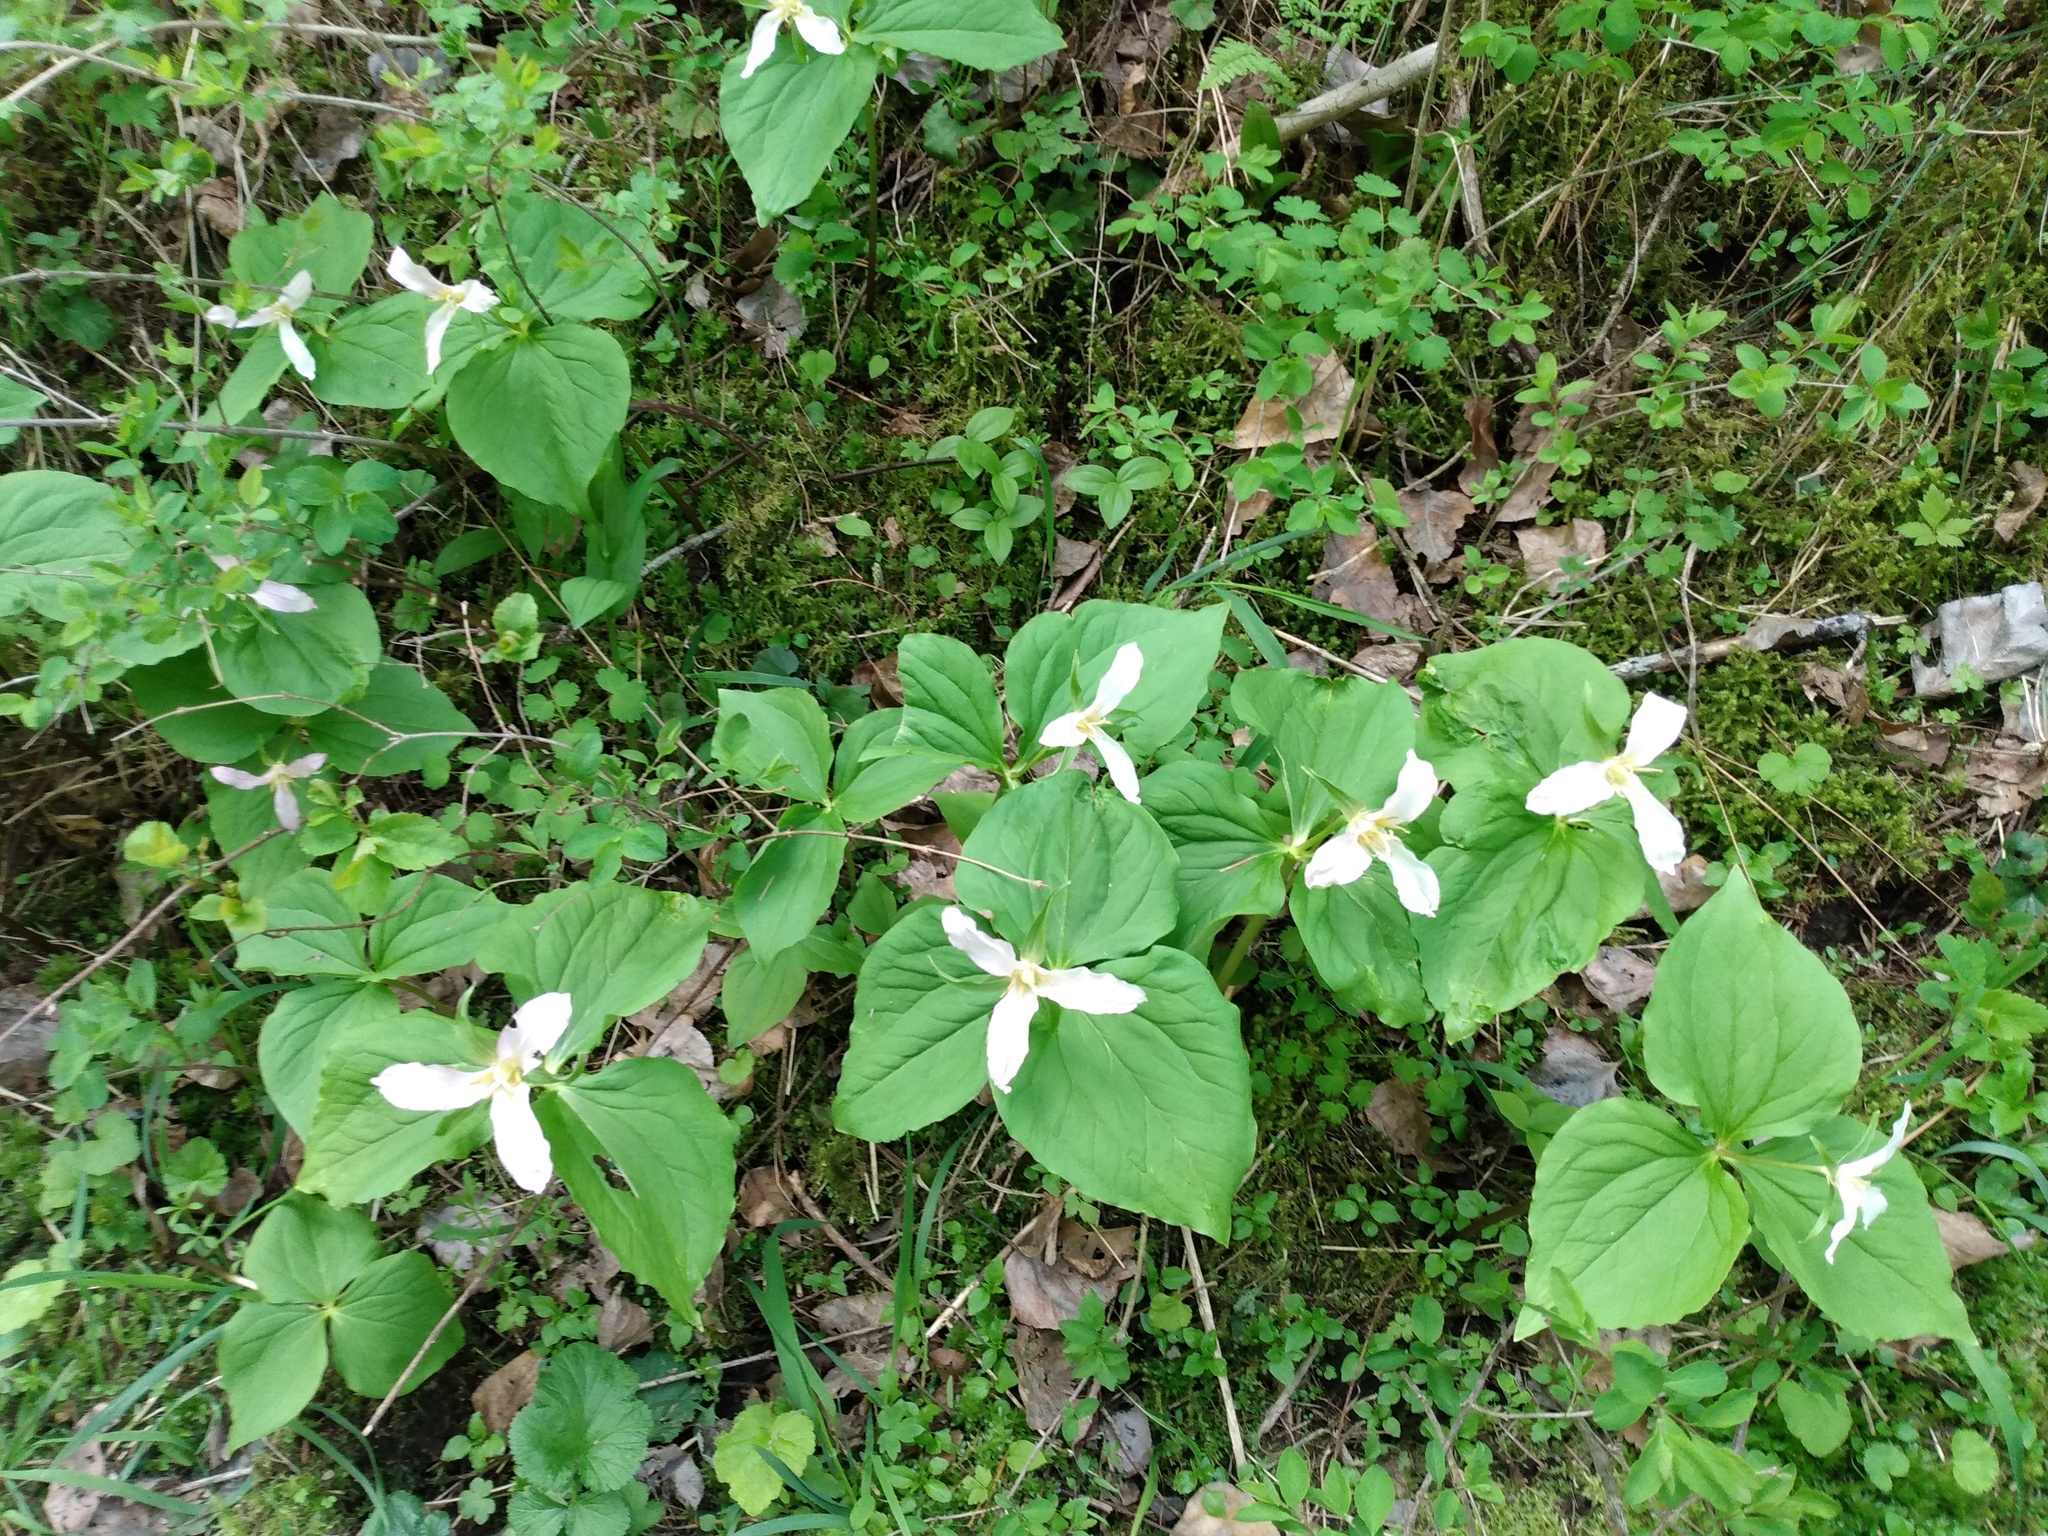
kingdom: Plantae
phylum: Tracheophyta
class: Liliopsida
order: Liliales
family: Melanthiaceae
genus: Trillium
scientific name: Trillium ovatum
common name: Pacific trillium
